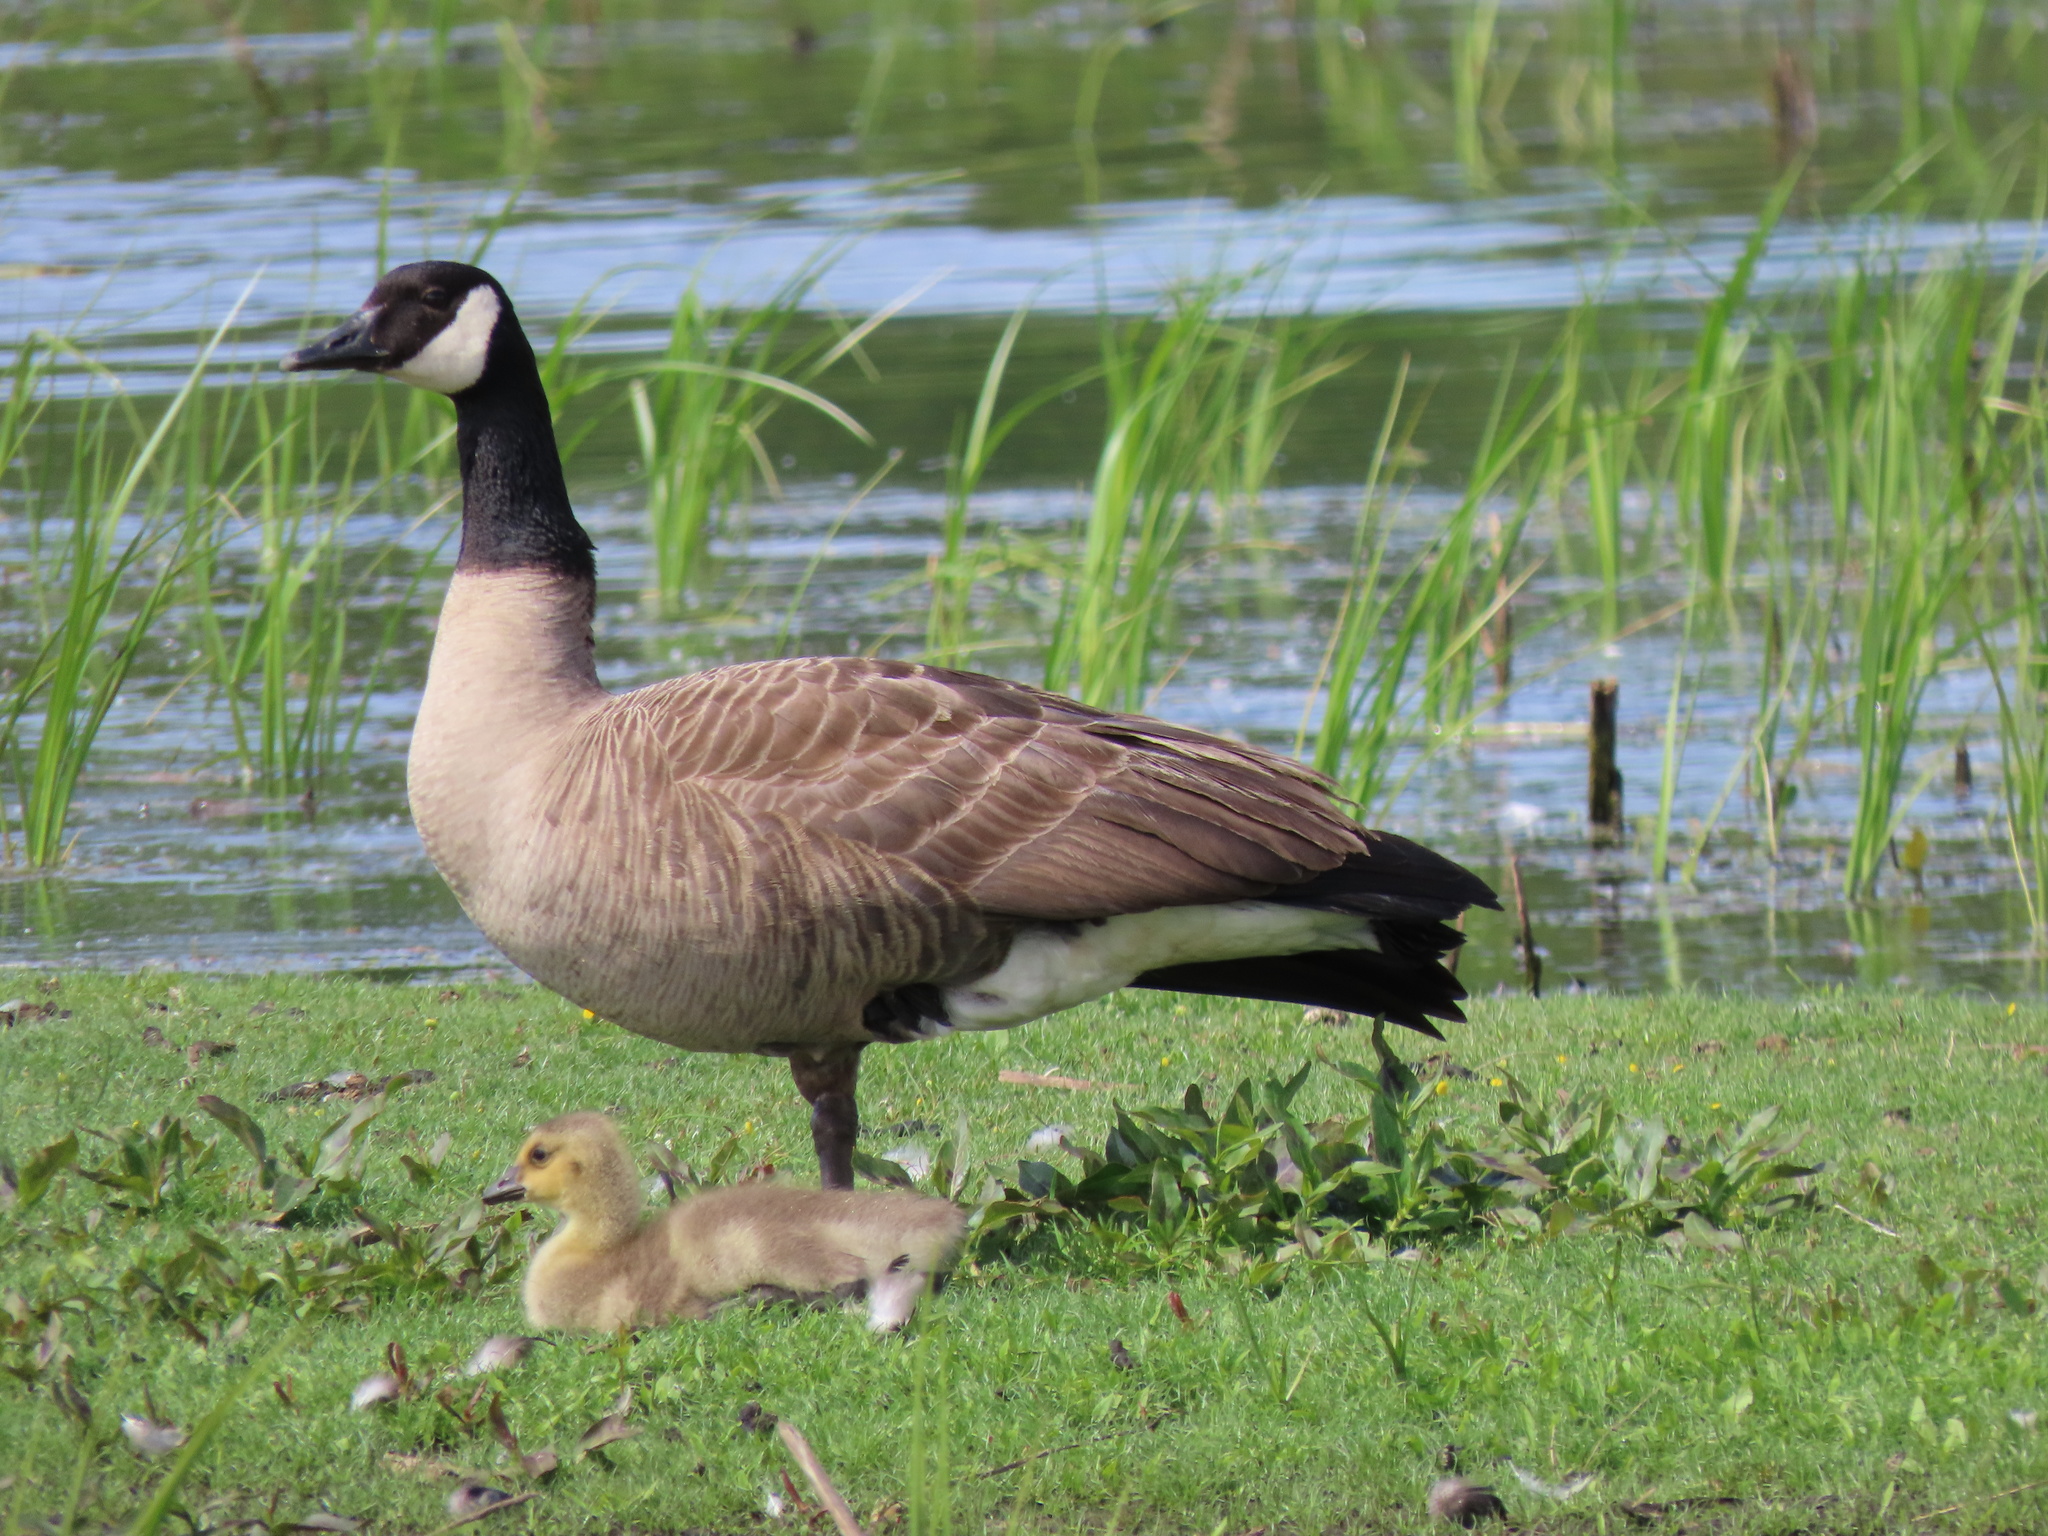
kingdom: Animalia
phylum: Chordata
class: Aves
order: Anseriformes
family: Anatidae
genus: Branta
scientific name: Branta canadensis
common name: Canada goose
